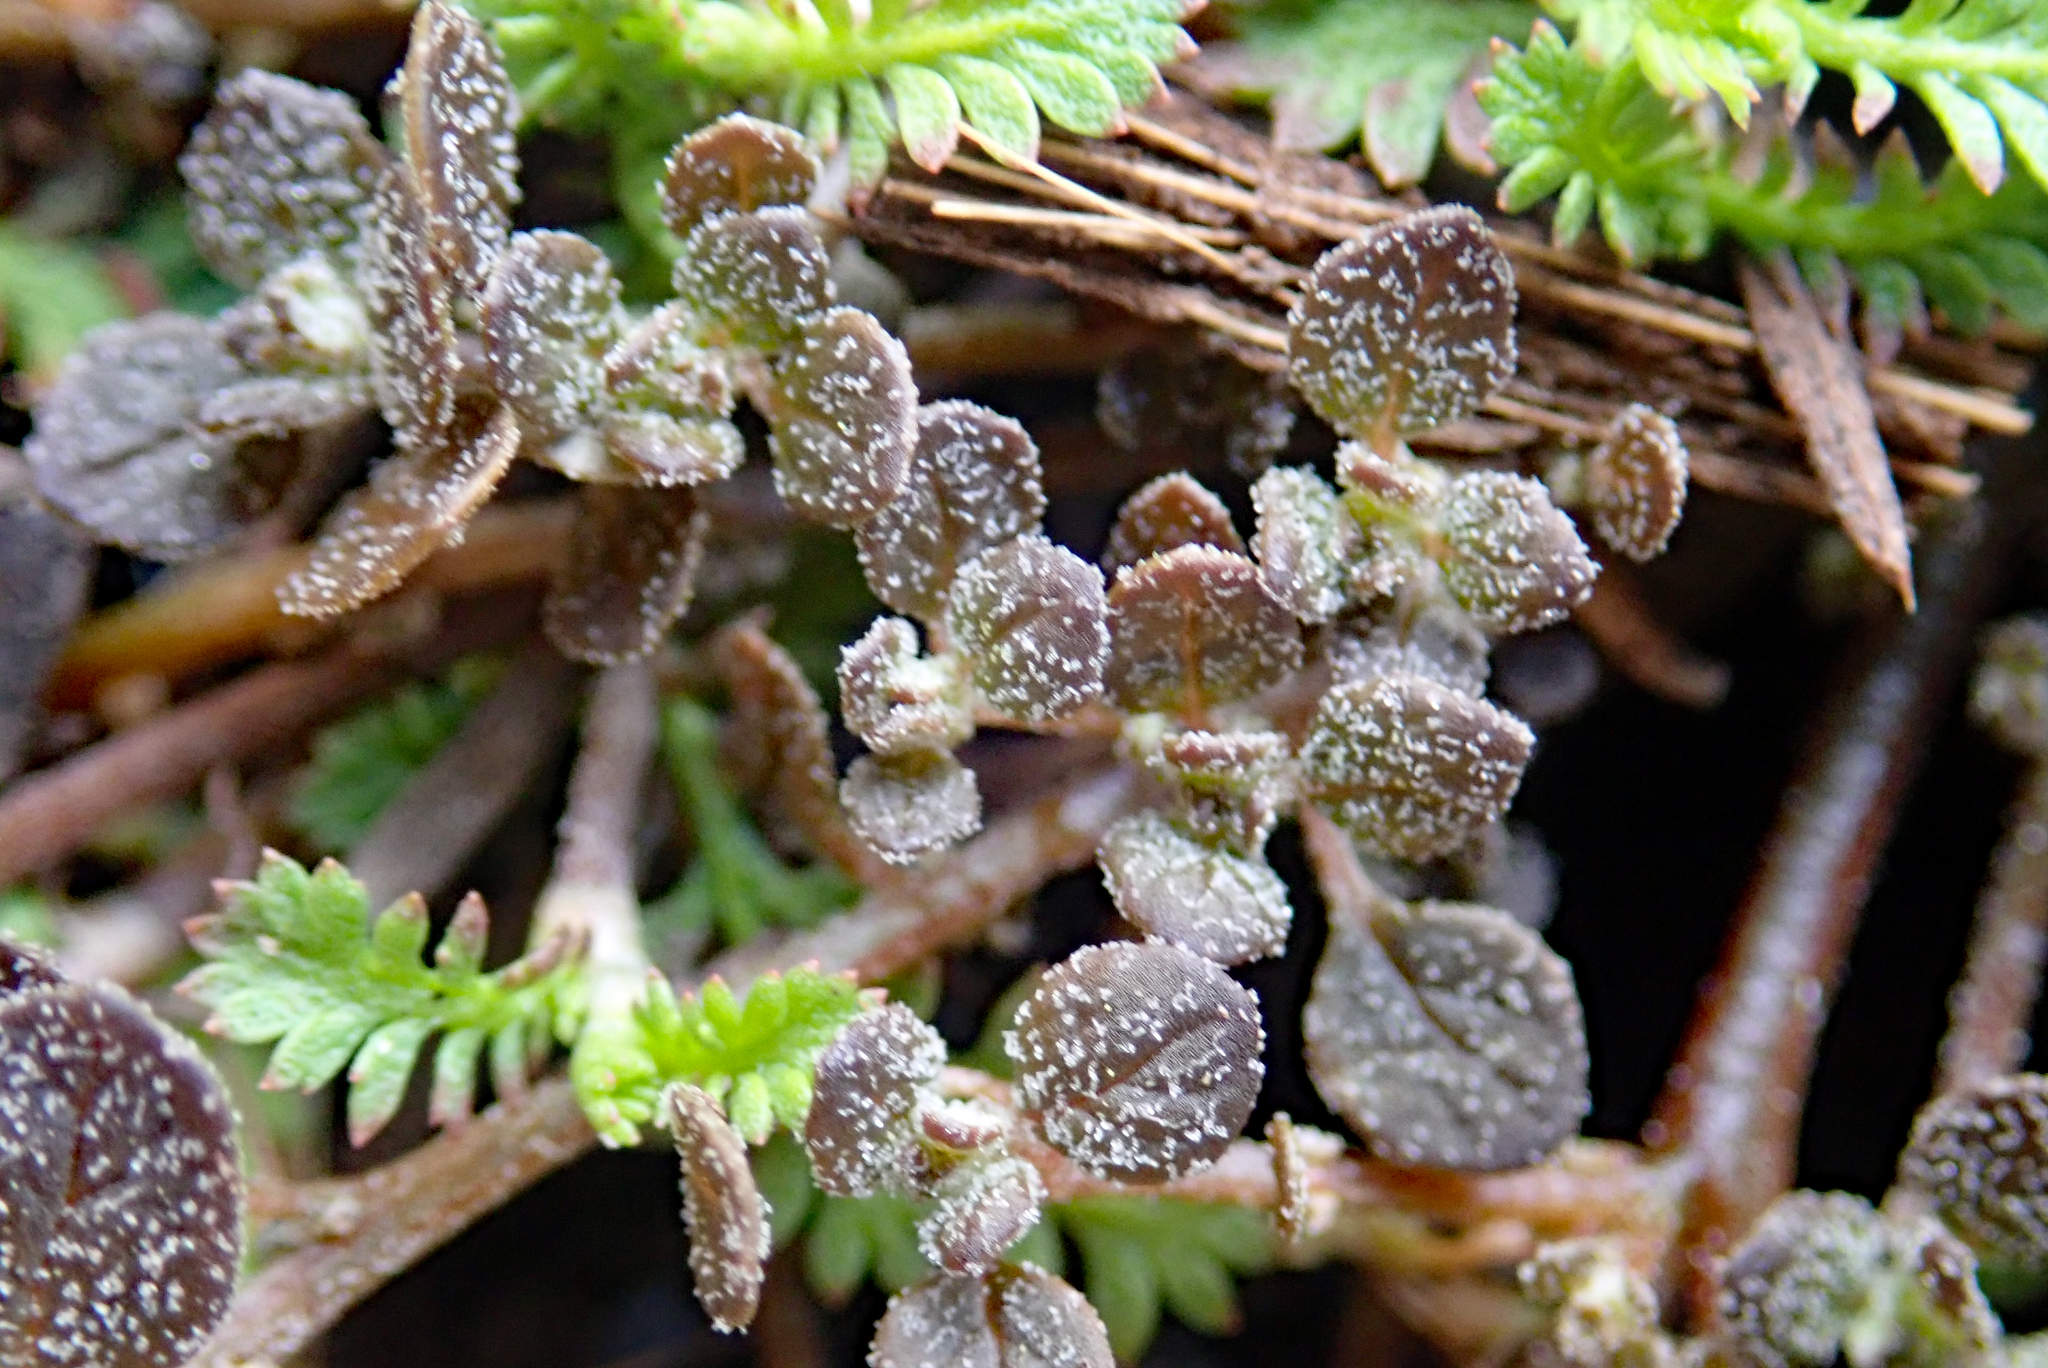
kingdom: Plantae
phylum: Tracheophyta
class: Magnoliopsida
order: Caryophyllales
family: Amaranthaceae
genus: Dysphania
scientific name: Dysphania pusilla
